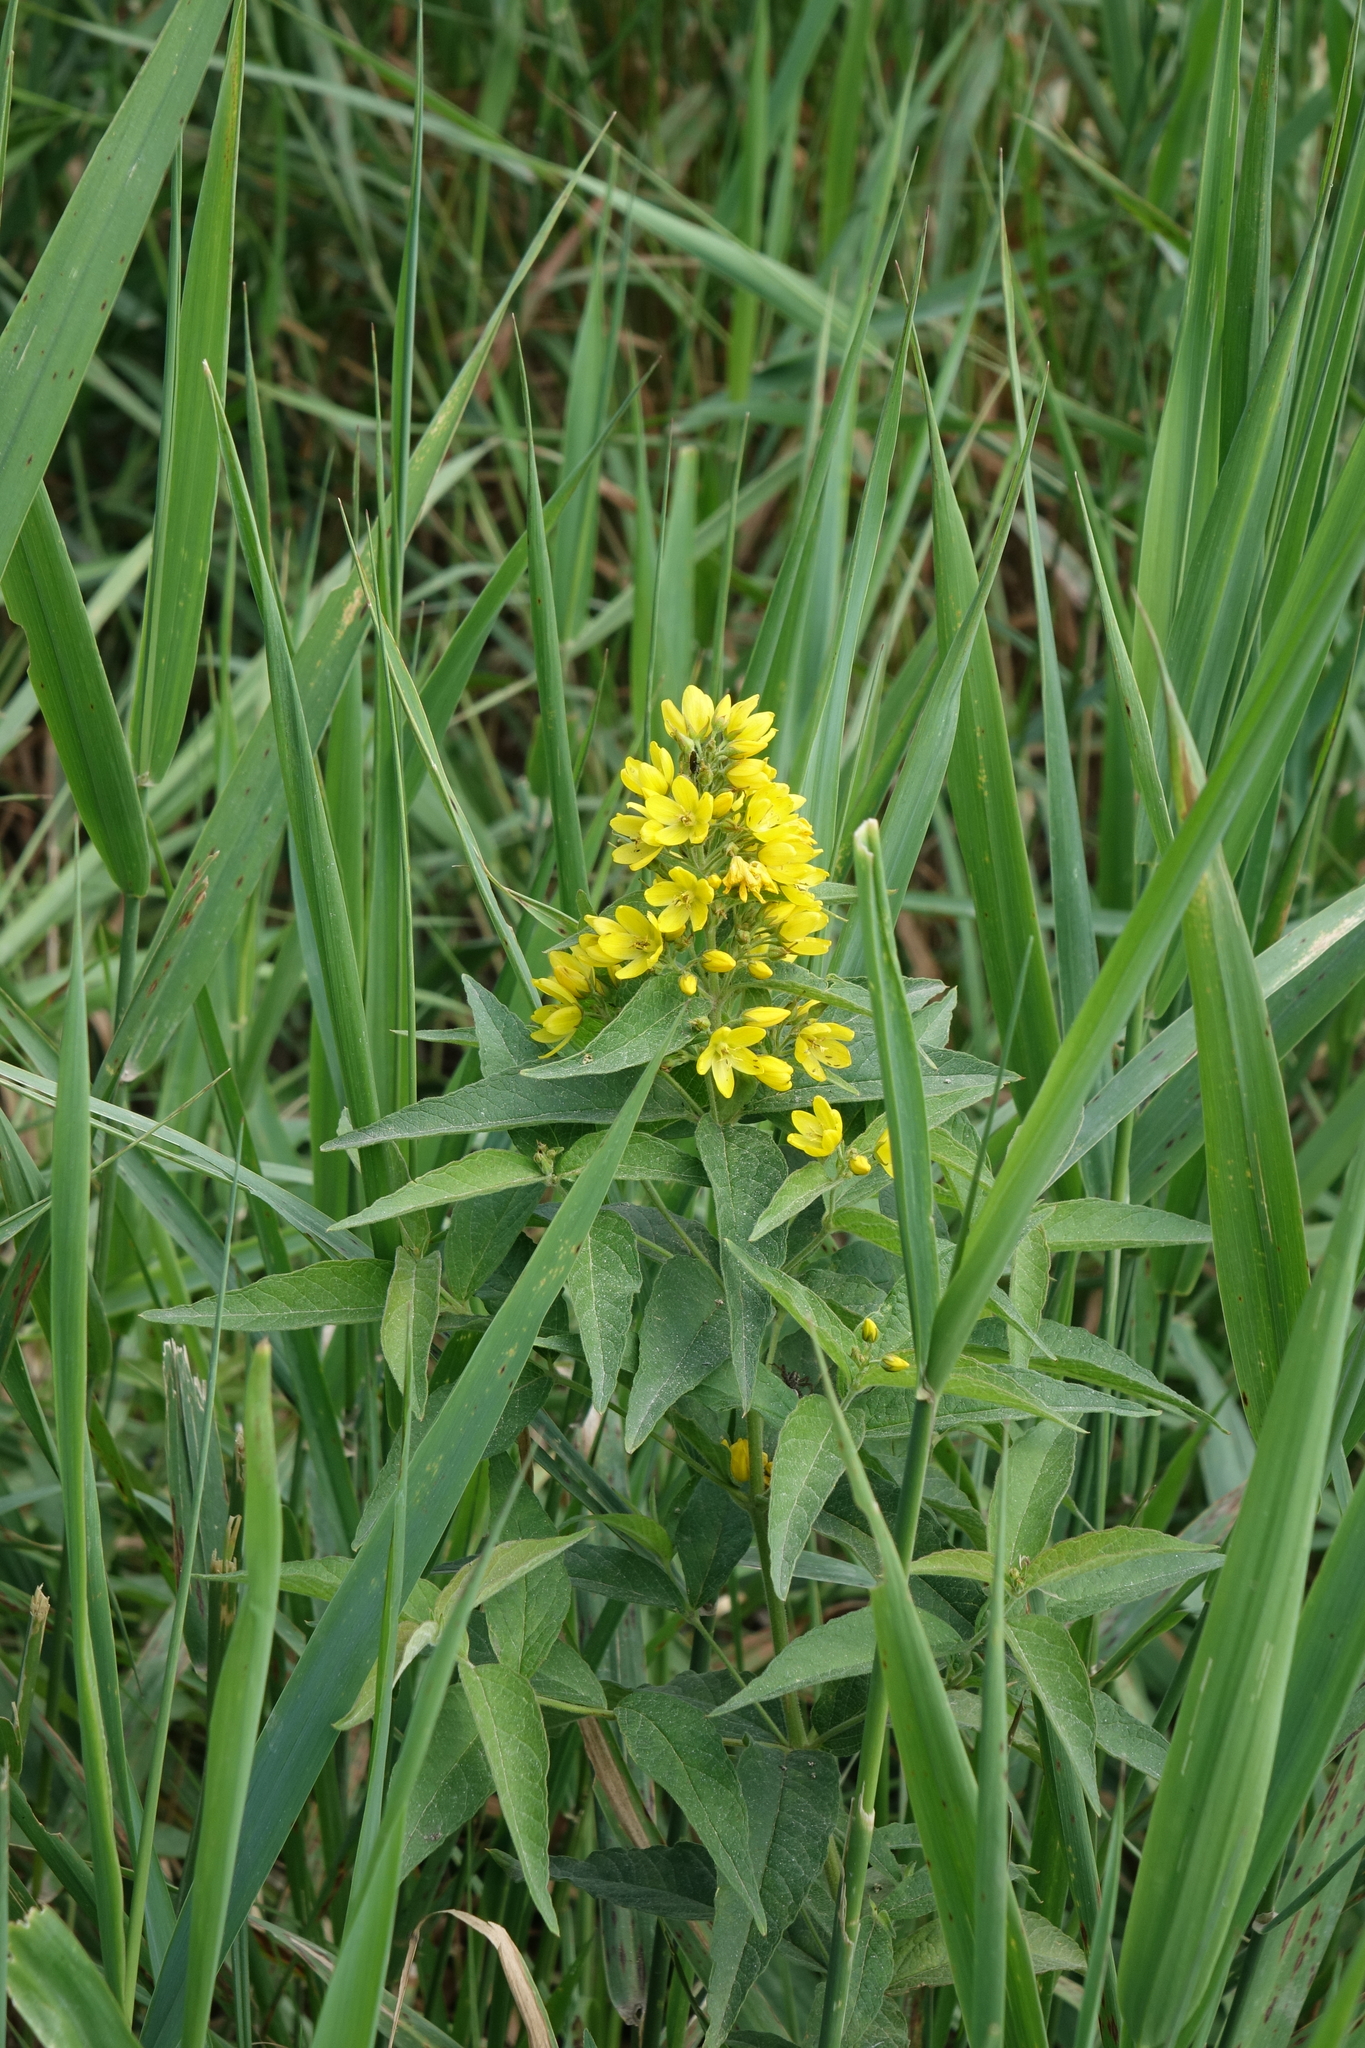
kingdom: Plantae
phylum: Tracheophyta
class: Magnoliopsida
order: Ericales
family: Primulaceae
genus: Lysimachia
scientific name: Lysimachia vulgaris
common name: Yellow loosestrife
